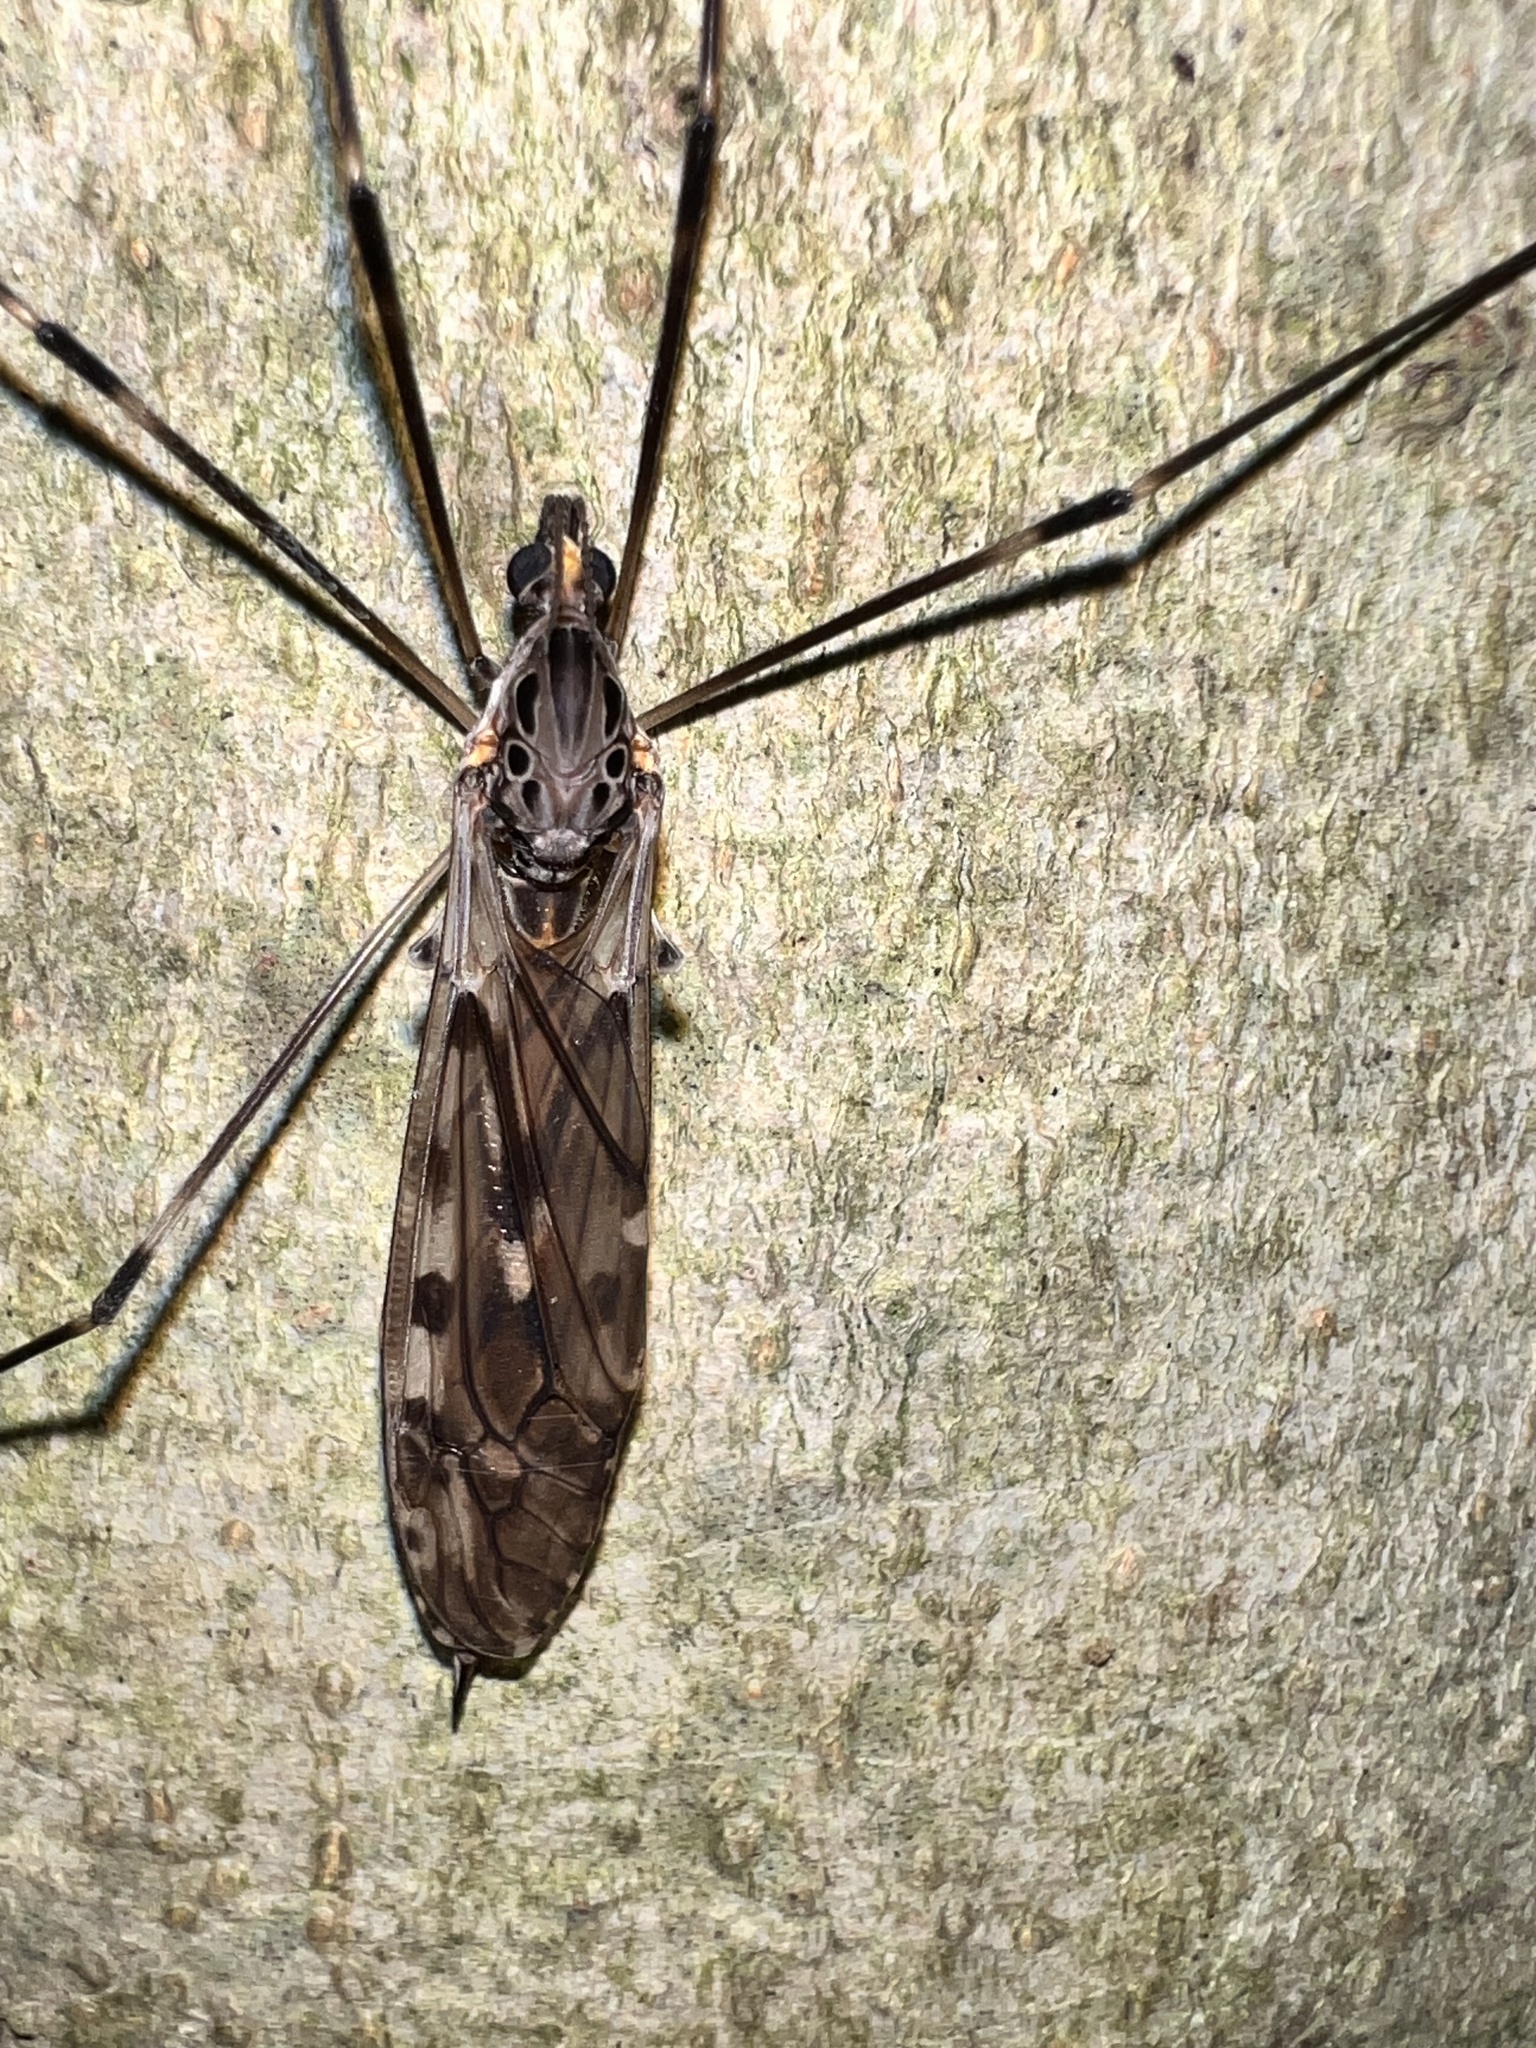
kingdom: Animalia
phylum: Arthropoda
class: Insecta
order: Diptera
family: Tipulidae
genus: Tipula
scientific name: Tipula abdominalis
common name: Giant crane fly
